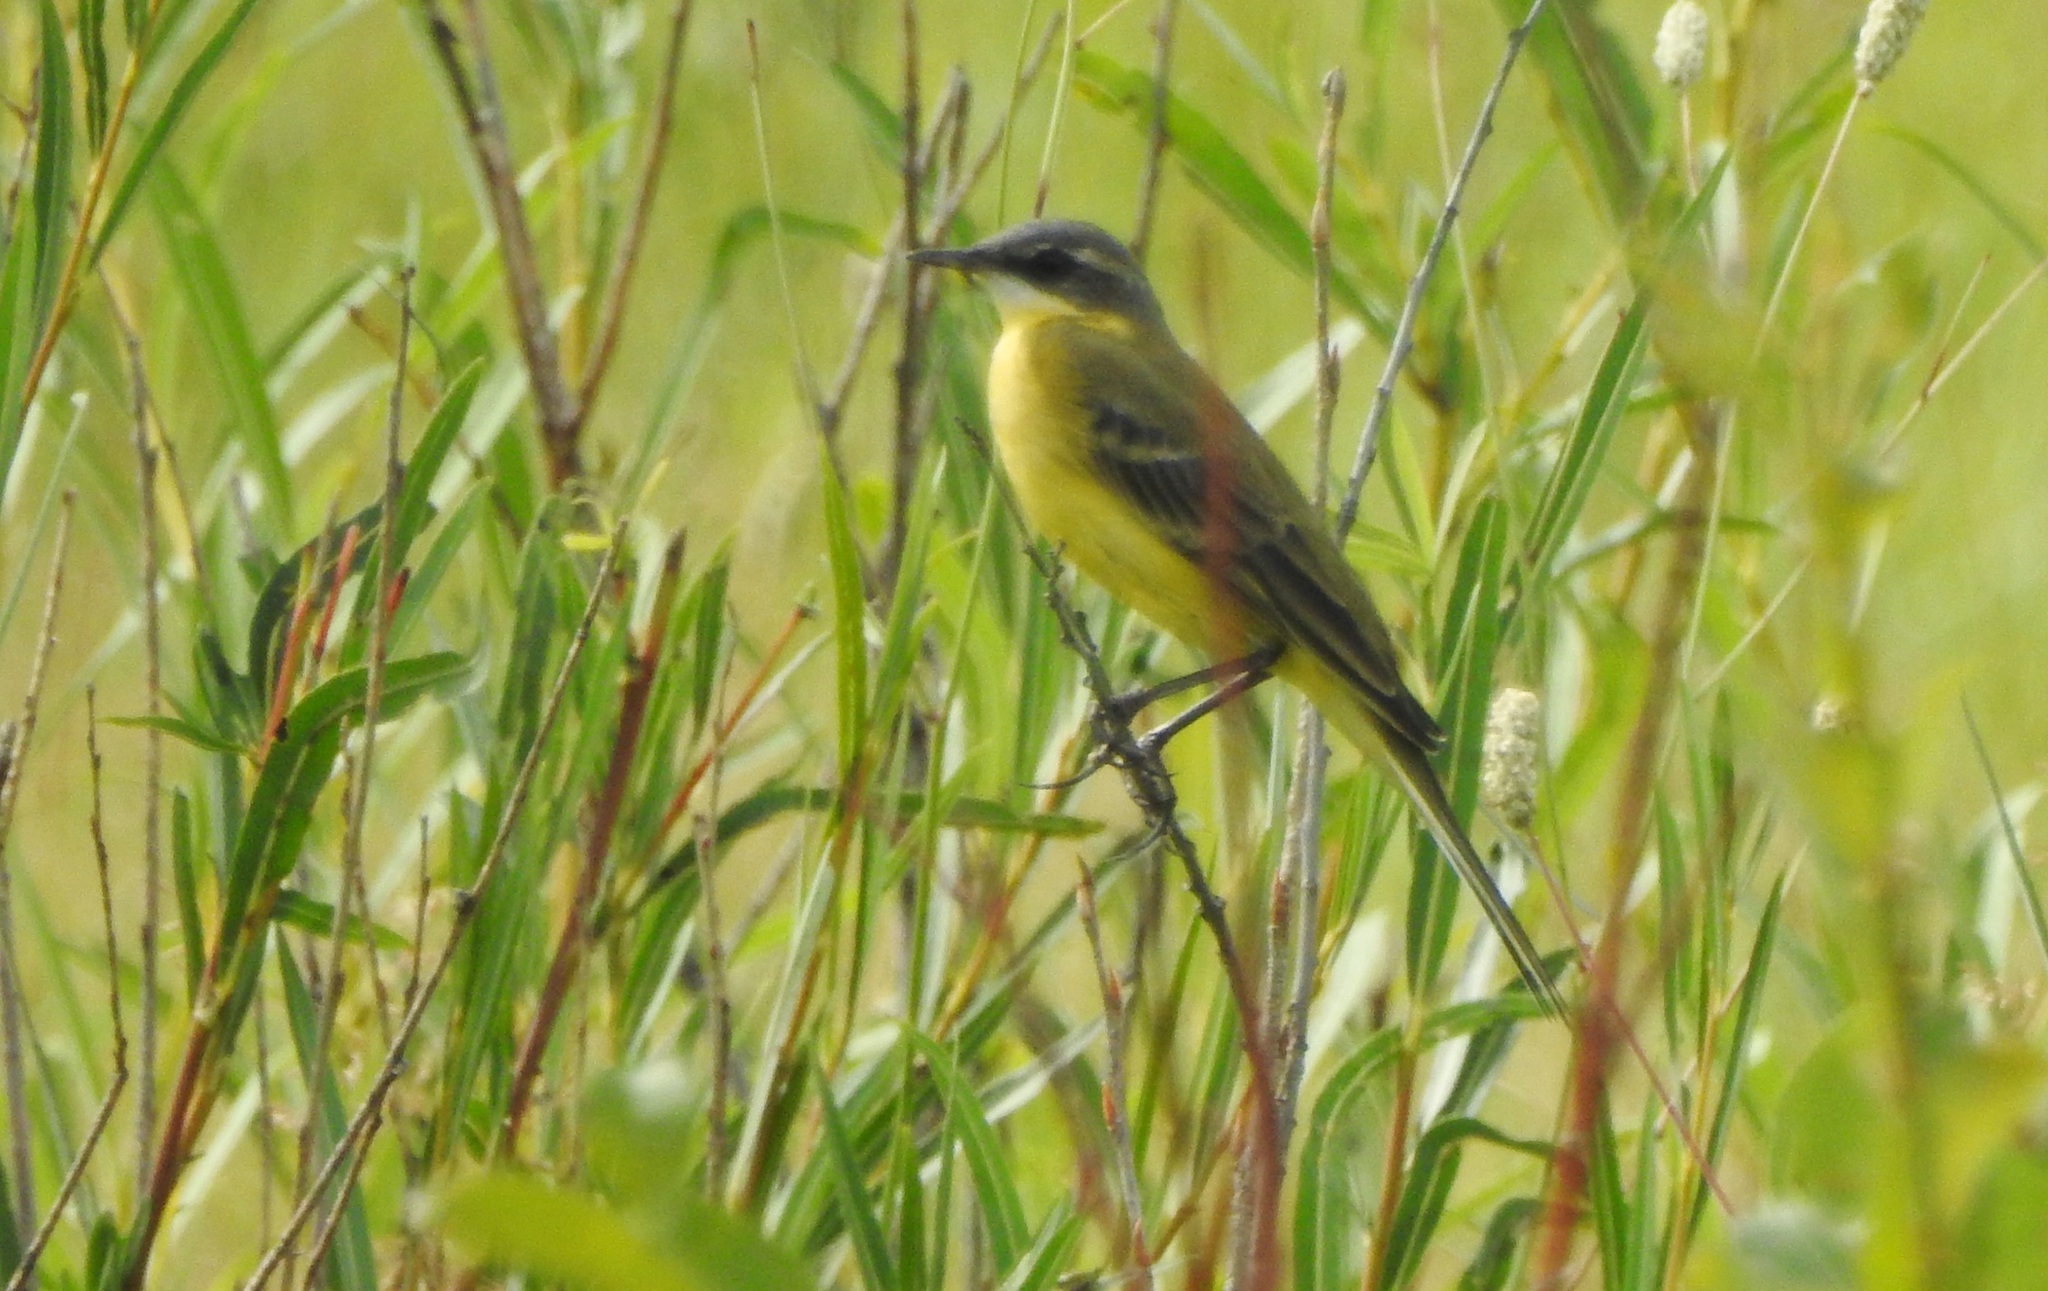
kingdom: Animalia
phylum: Chordata
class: Aves
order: Passeriformes
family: Motacillidae
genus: Motacilla
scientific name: Motacilla tschutschensis
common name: Eastern yellow wagtail
